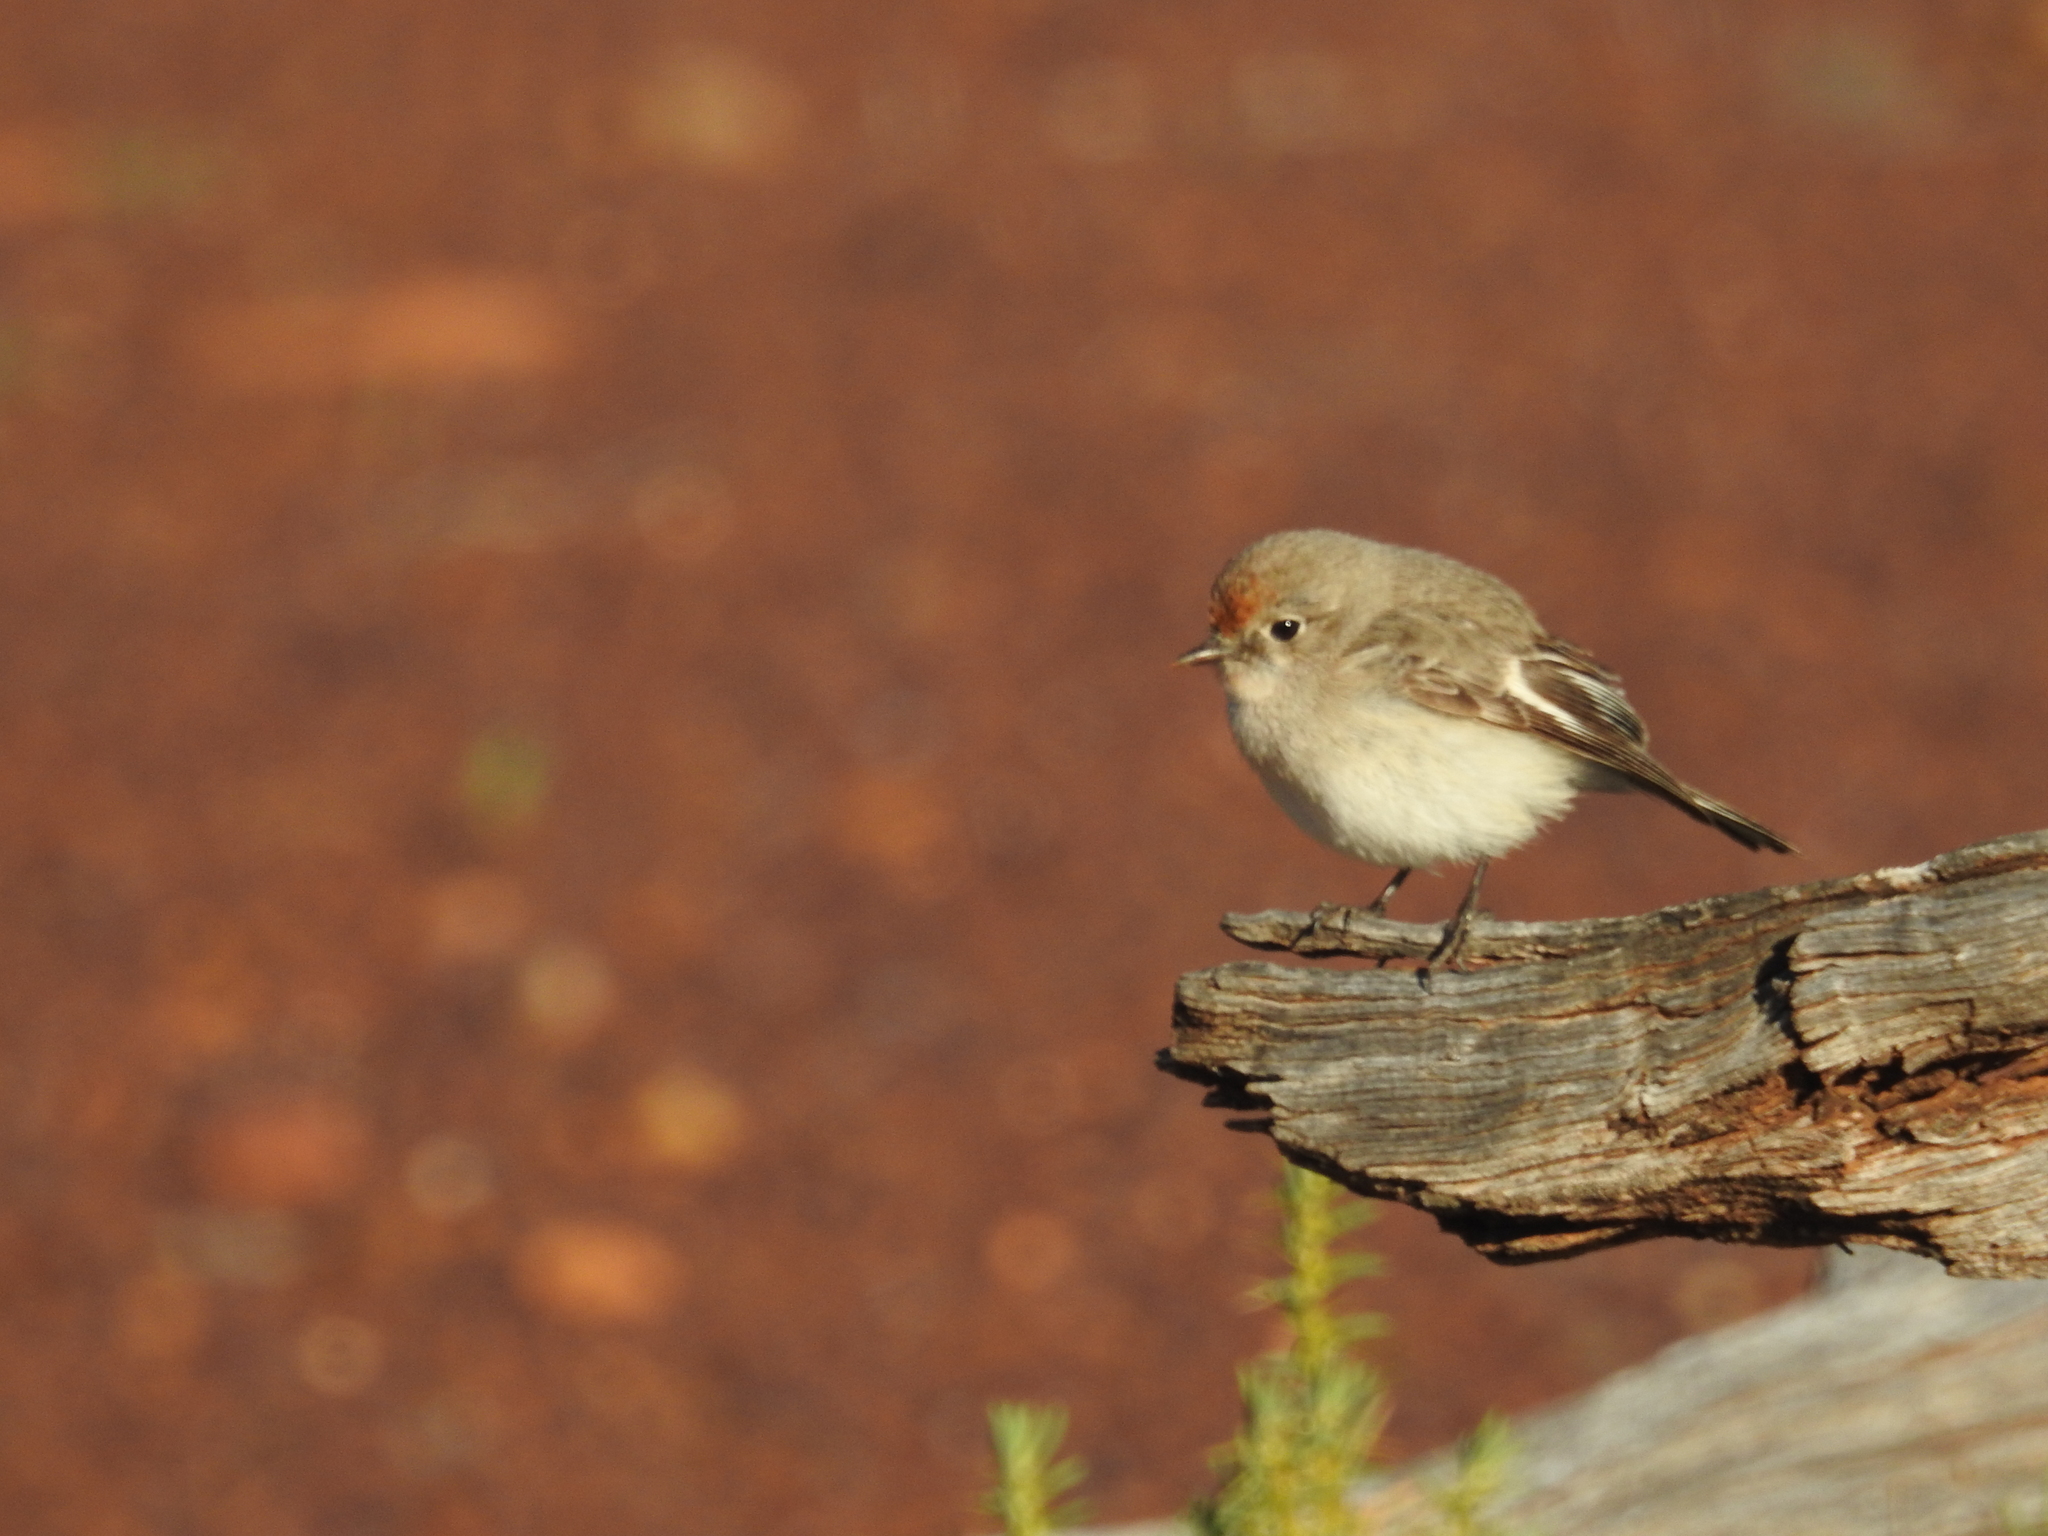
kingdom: Animalia
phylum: Chordata
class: Aves
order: Passeriformes
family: Petroicidae
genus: Petroica
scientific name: Petroica goodenovii
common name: Red-capped robin
